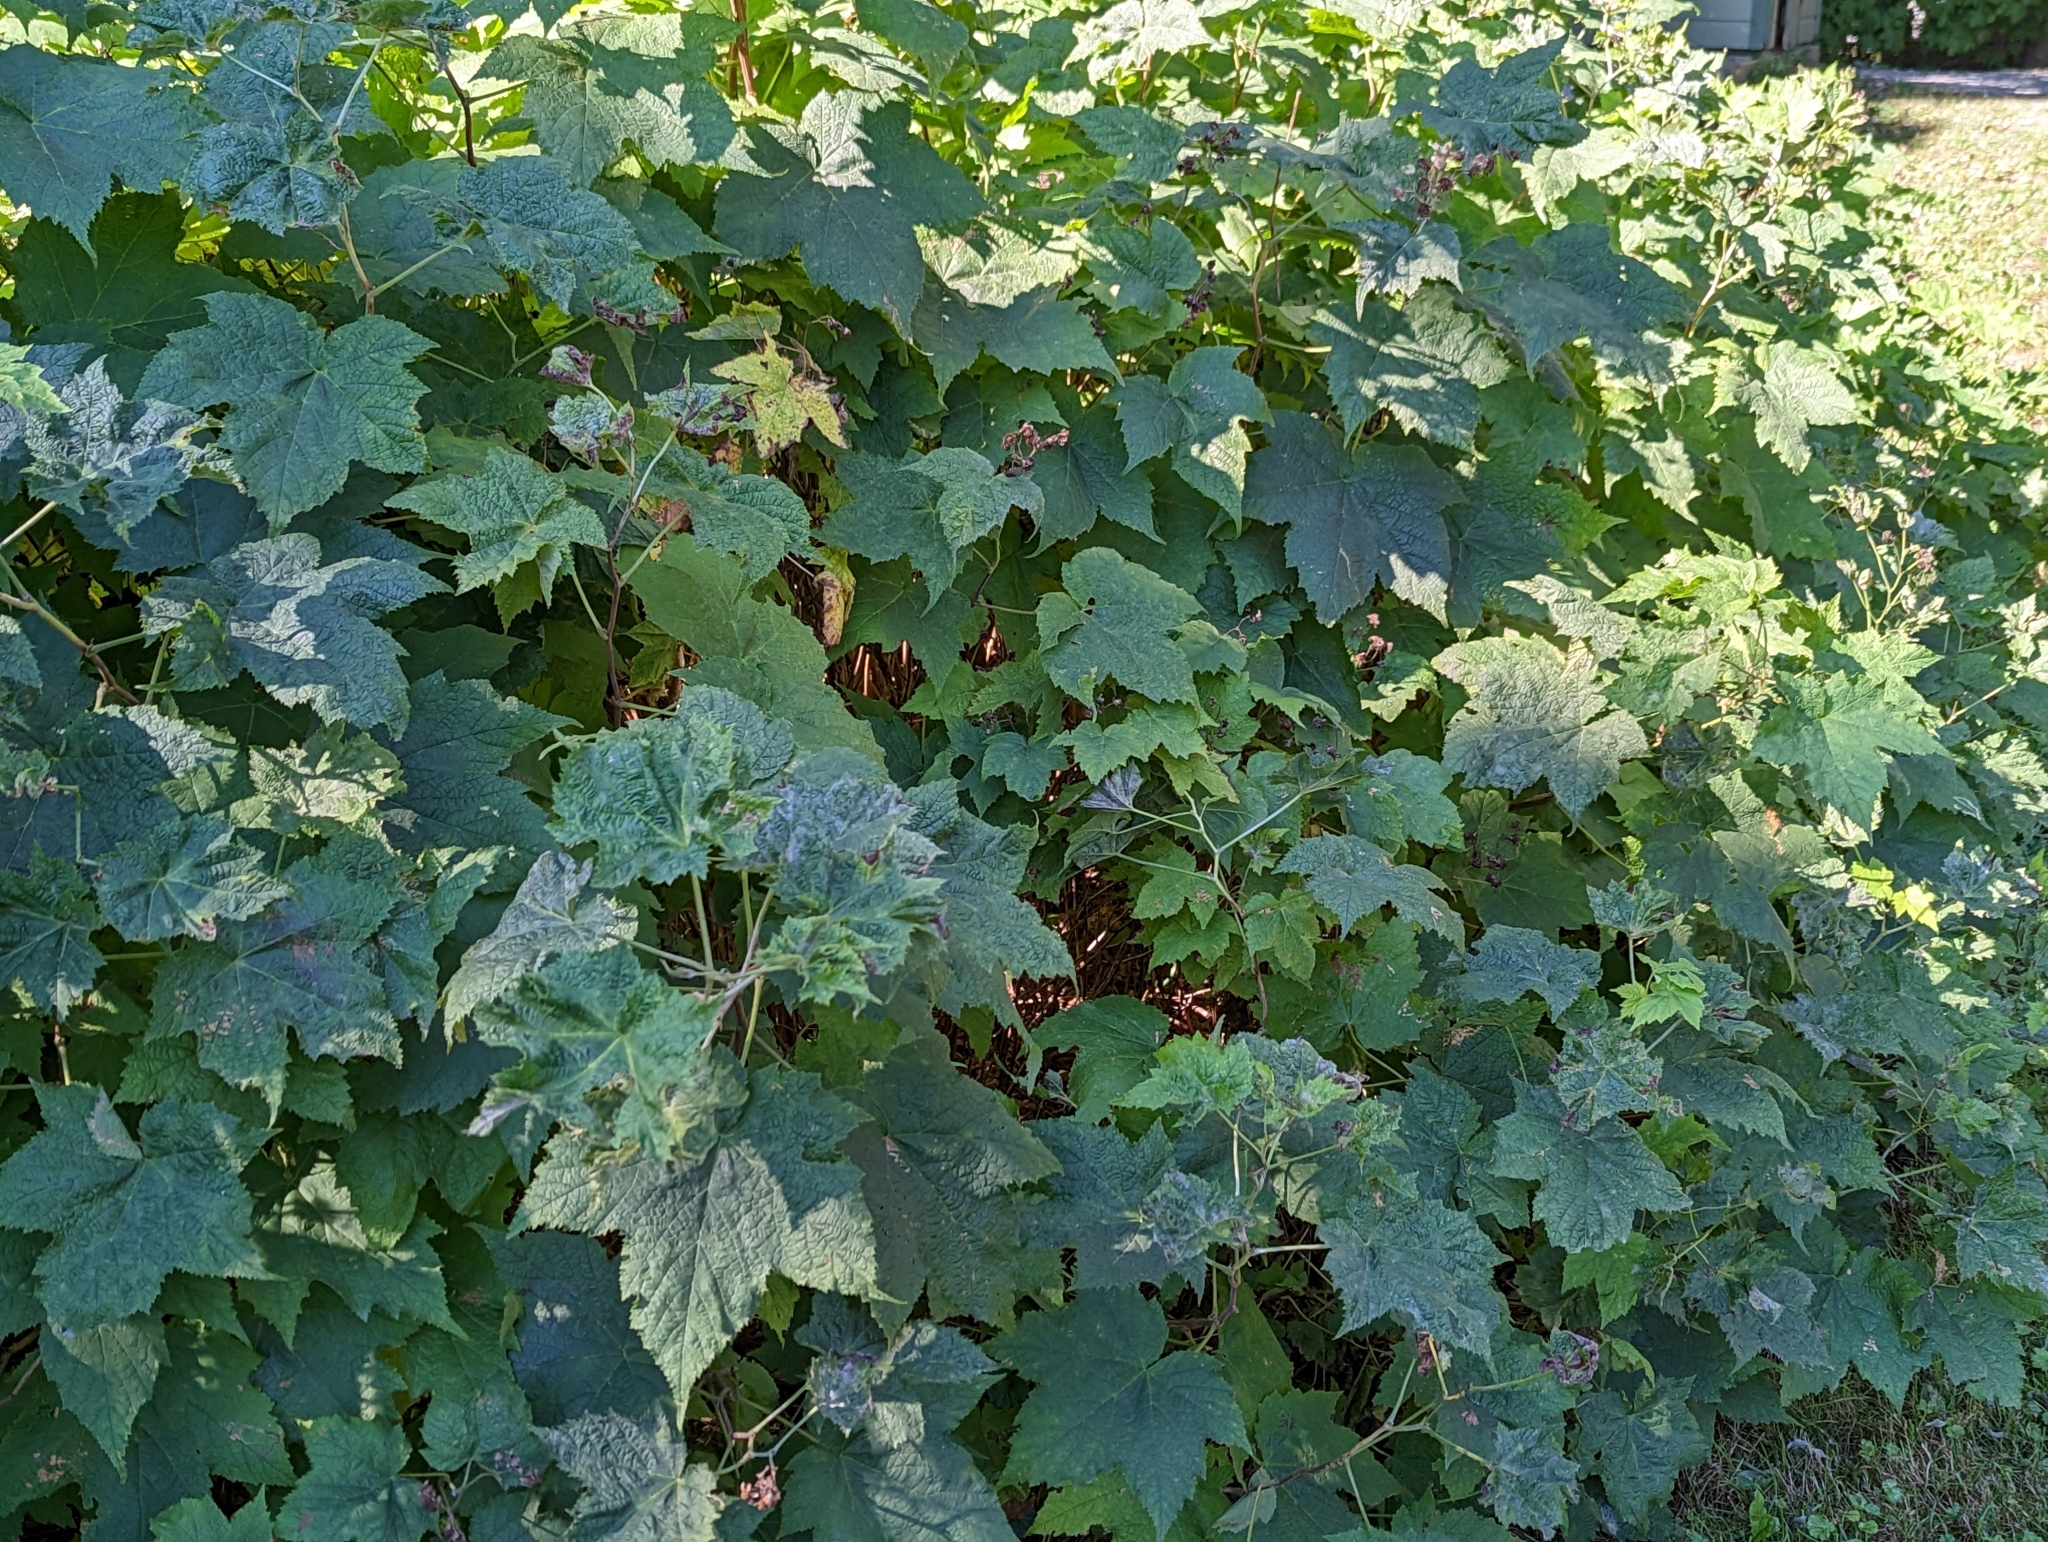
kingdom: Plantae
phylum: Tracheophyta
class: Magnoliopsida
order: Rosales
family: Rosaceae
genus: Rubus
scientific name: Rubus odoratus
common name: Purple-flowered raspberry
